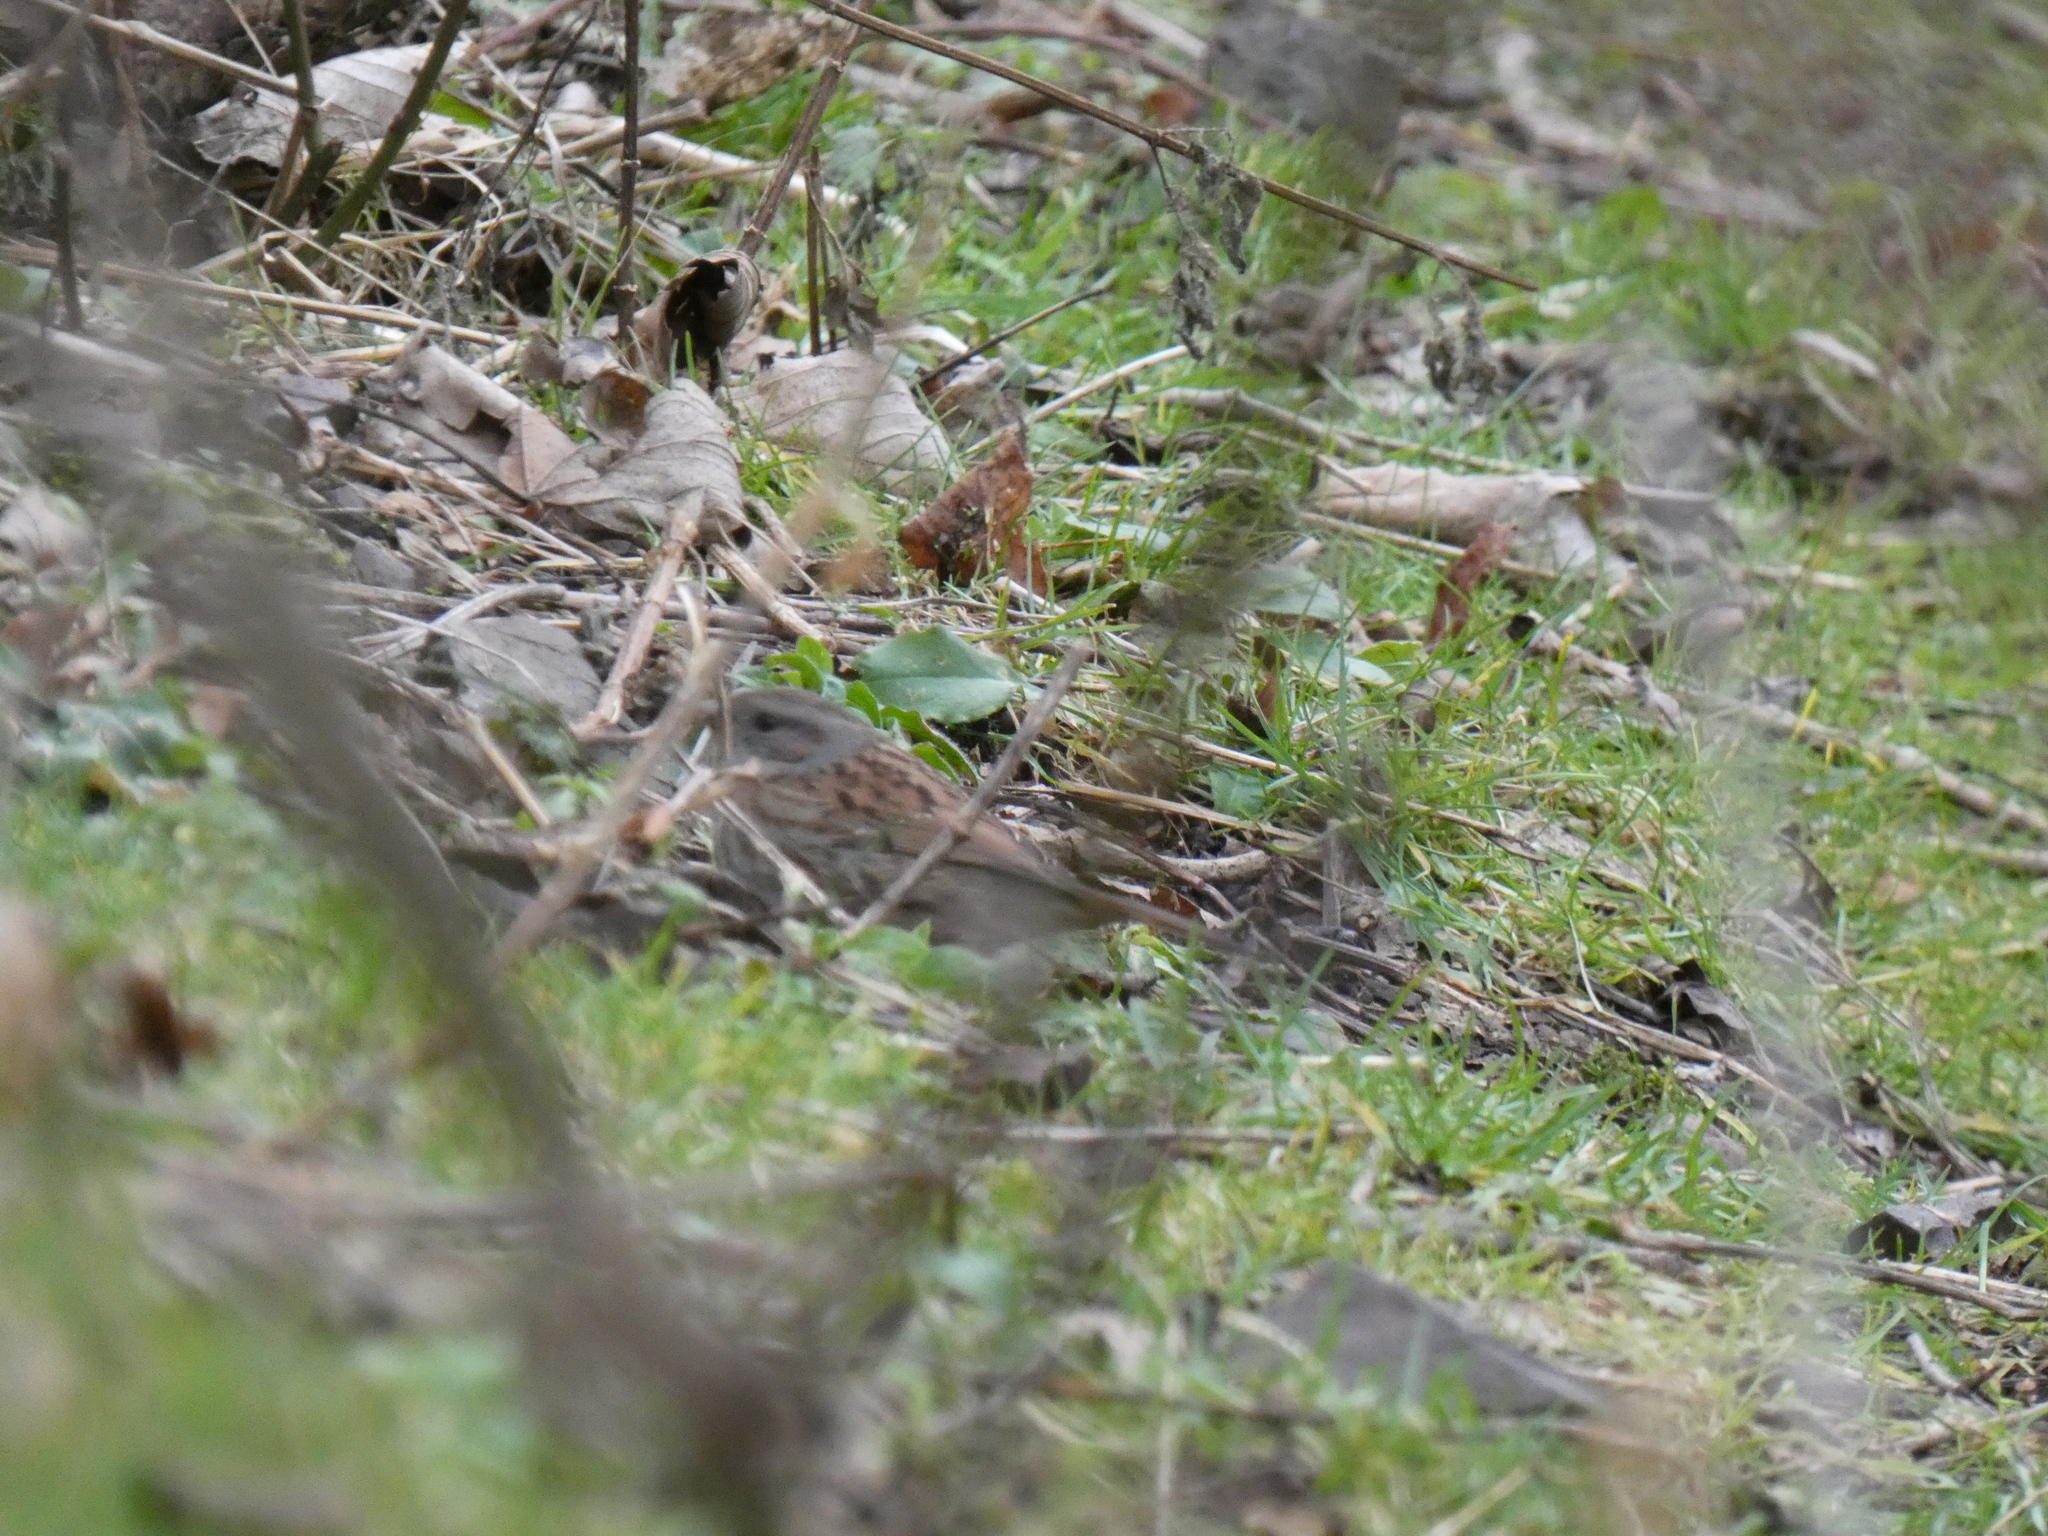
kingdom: Animalia
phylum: Chordata
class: Aves
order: Passeriformes
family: Prunellidae
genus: Prunella
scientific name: Prunella modularis
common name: Dunnock
